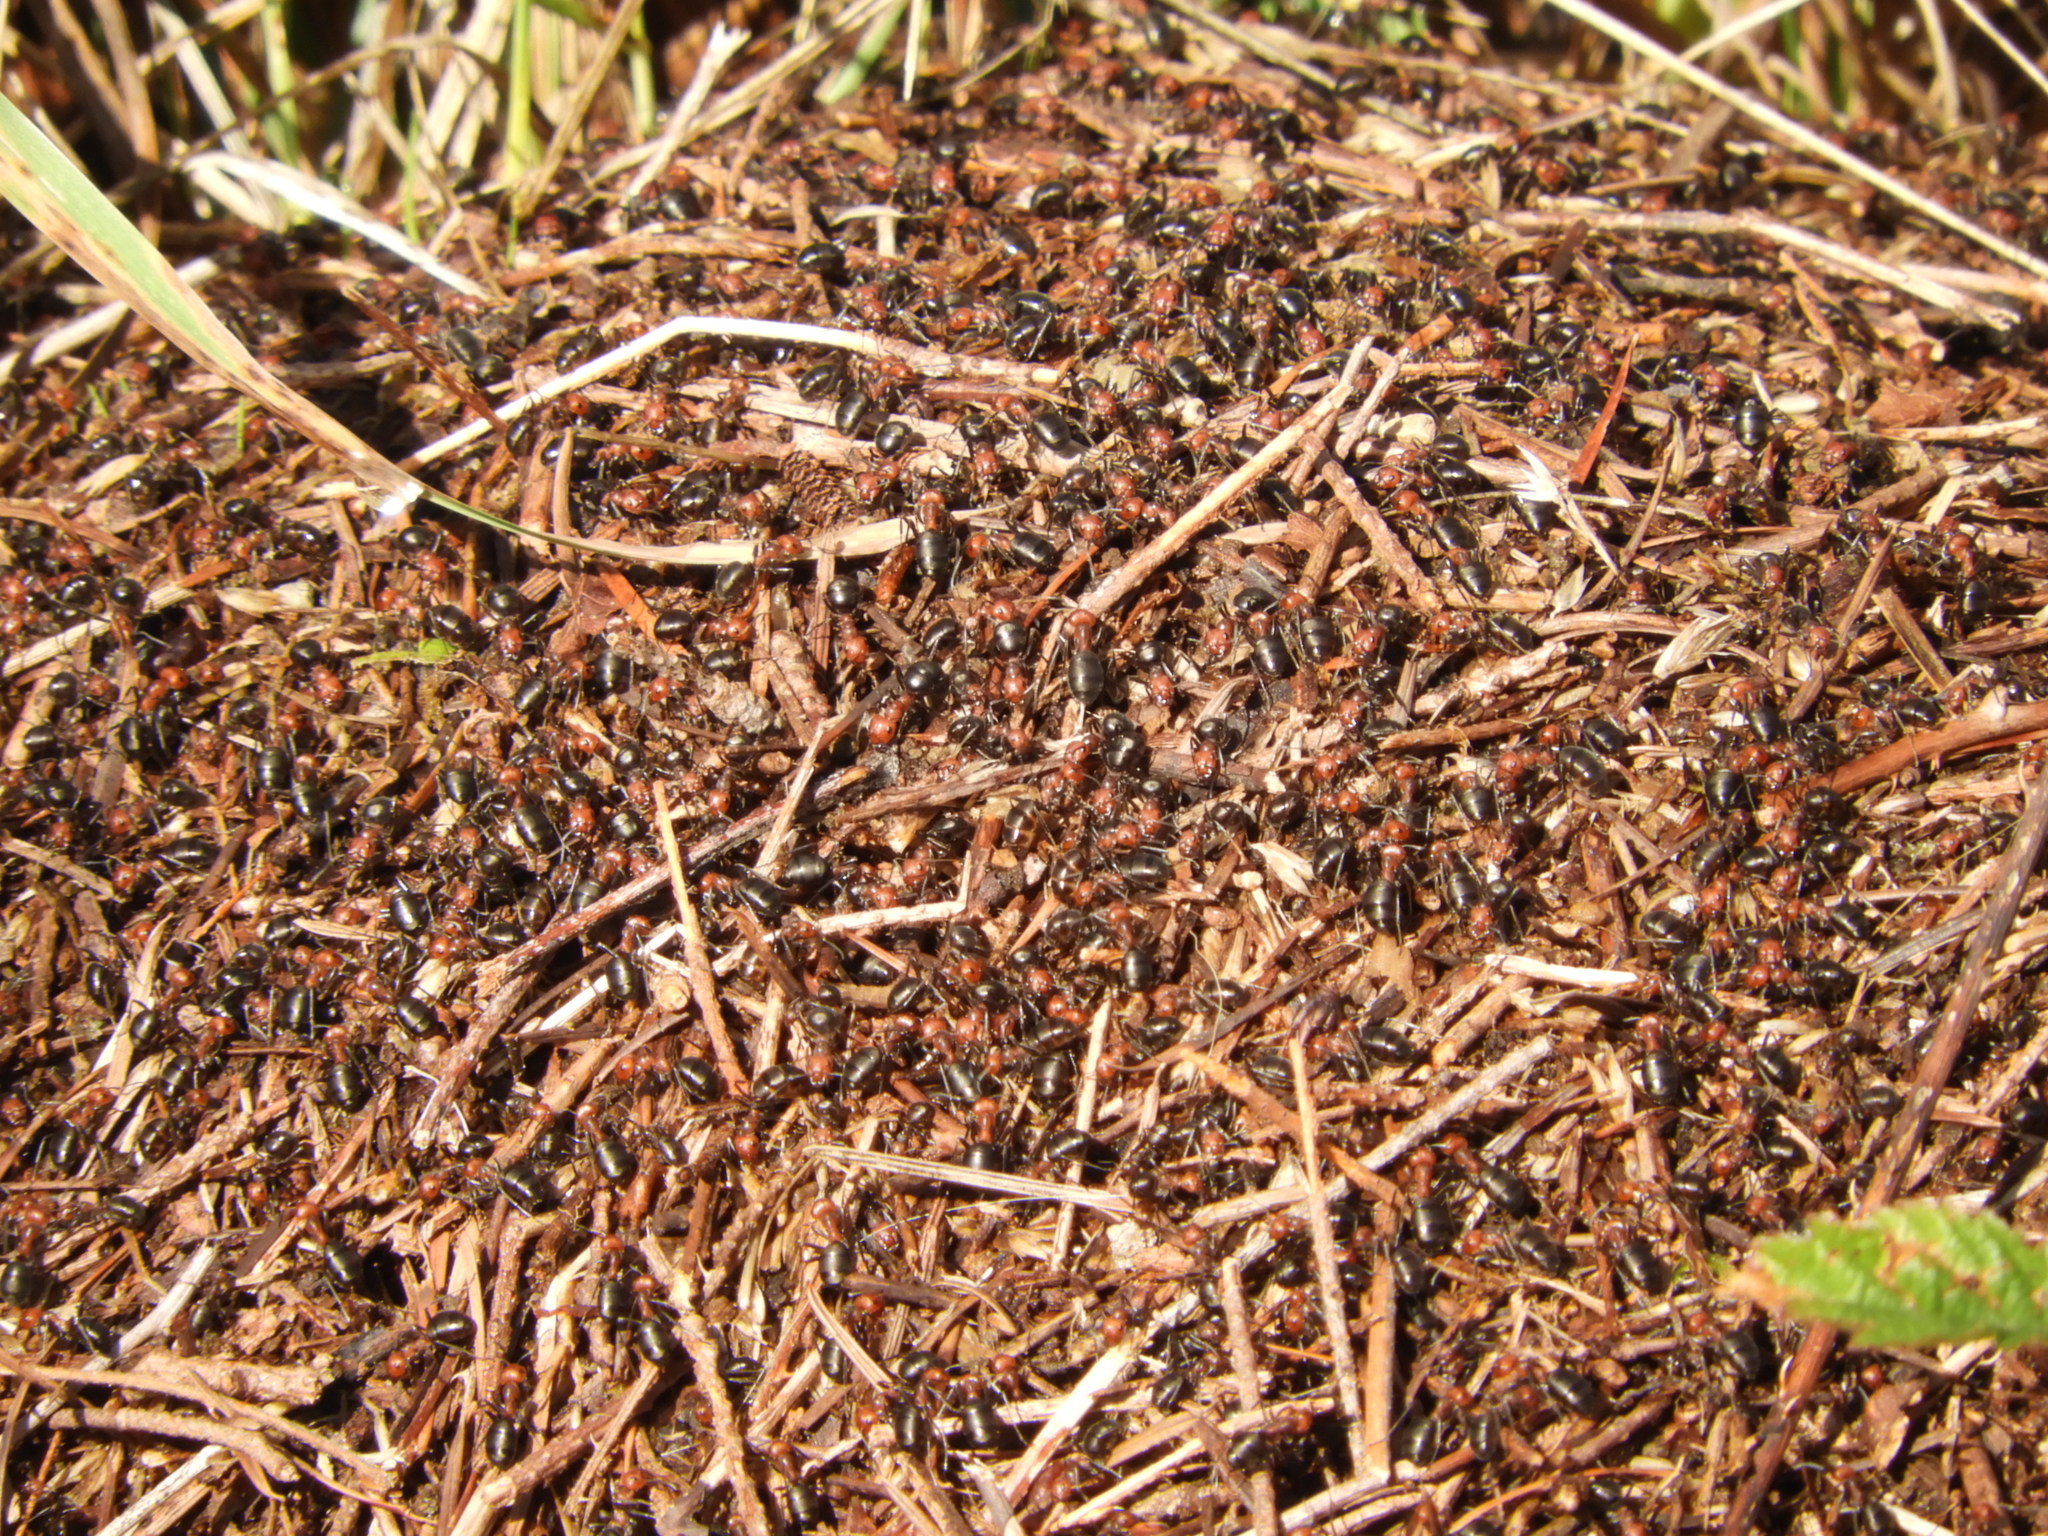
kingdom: Animalia
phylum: Arthropoda
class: Insecta
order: Hymenoptera
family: Formicidae
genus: Formica
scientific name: Formica obscuripes
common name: Western thatching ant
